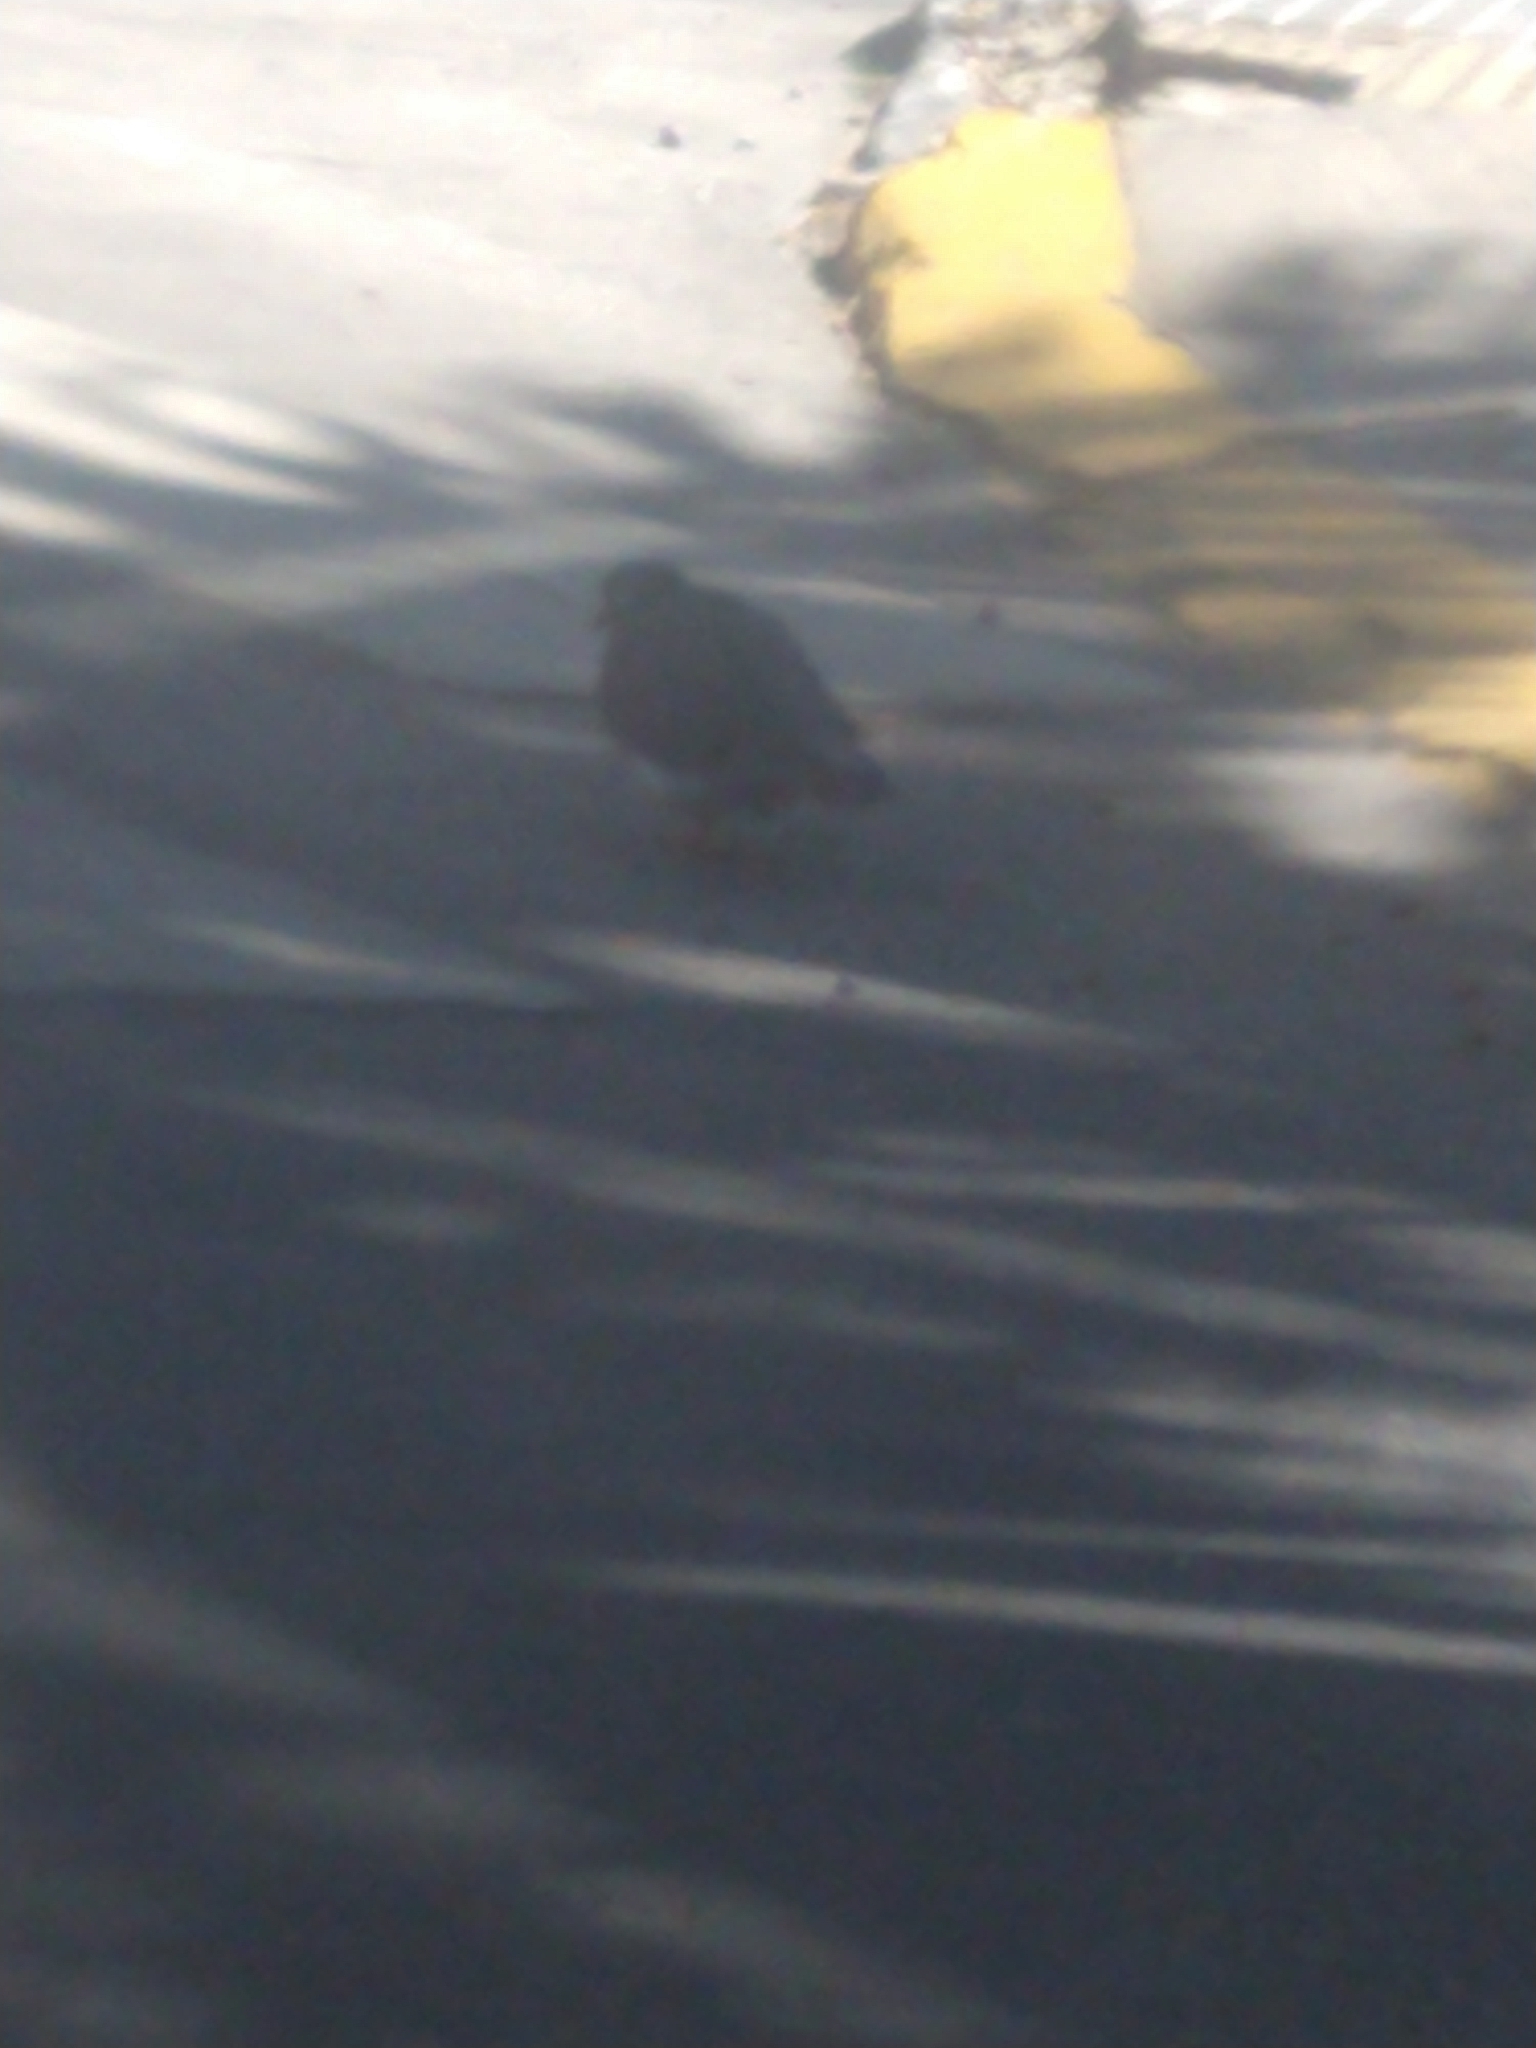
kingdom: Animalia
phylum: Chordata
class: Aves
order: Columbiformes
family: Columbidae
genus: Columba
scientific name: Columba livia
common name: Rock pigeon
